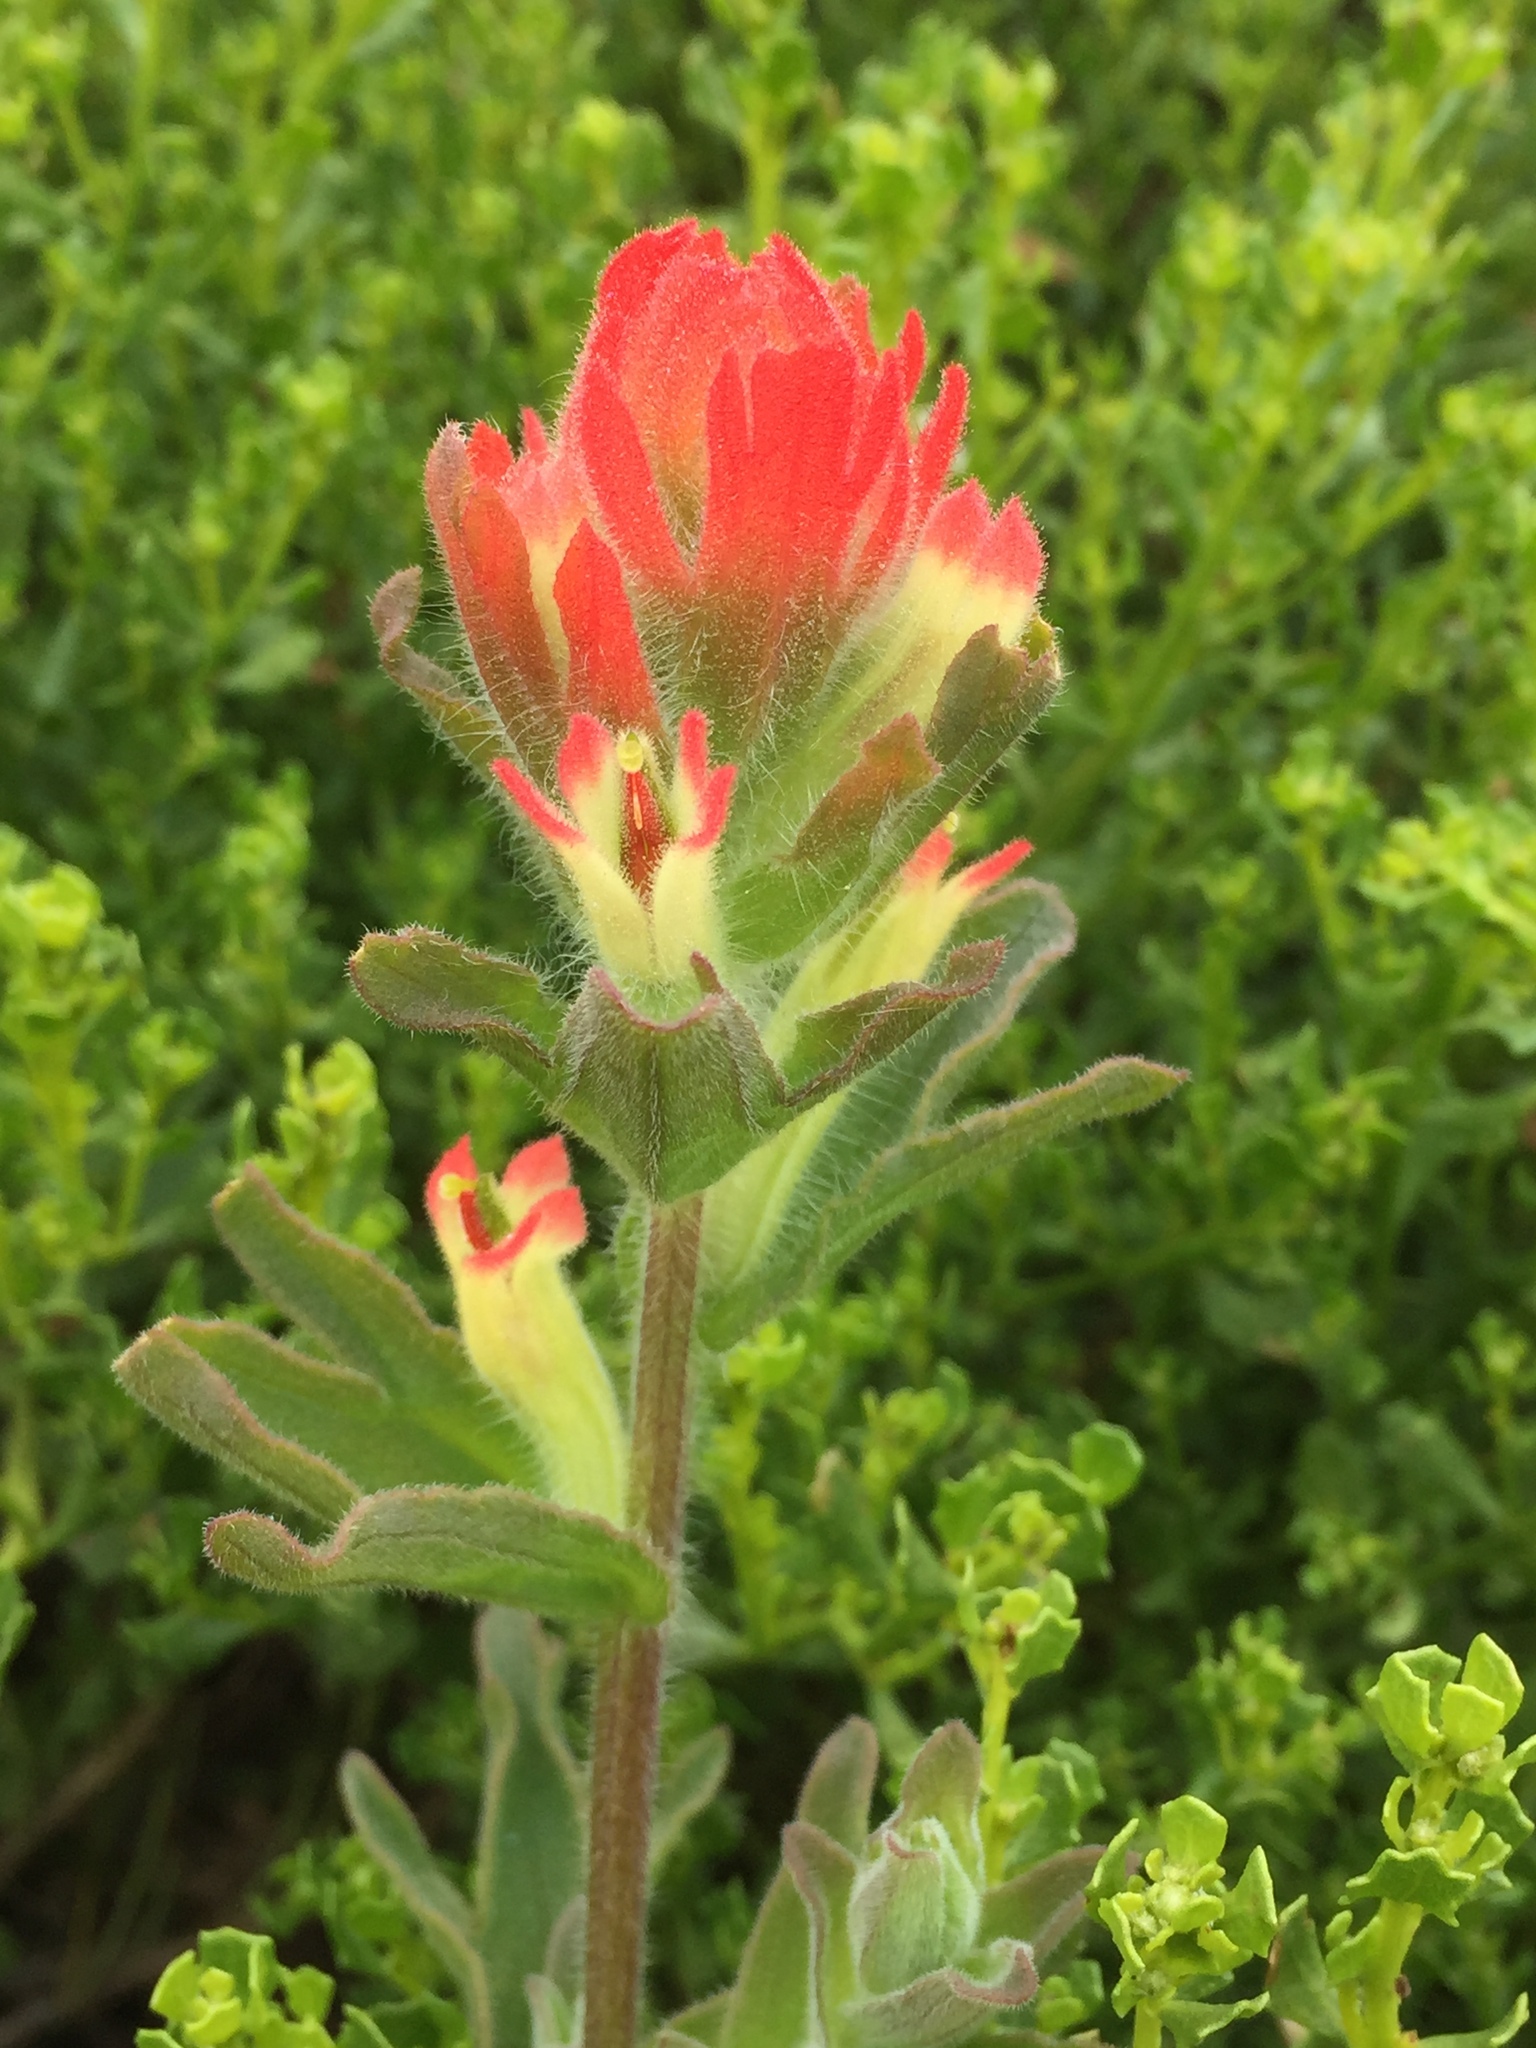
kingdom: Plantae
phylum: Tracheophyta
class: Magnoliopsida
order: Lamiales
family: Orobanchaceae
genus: Castilleja
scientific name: Castilleja affinis
